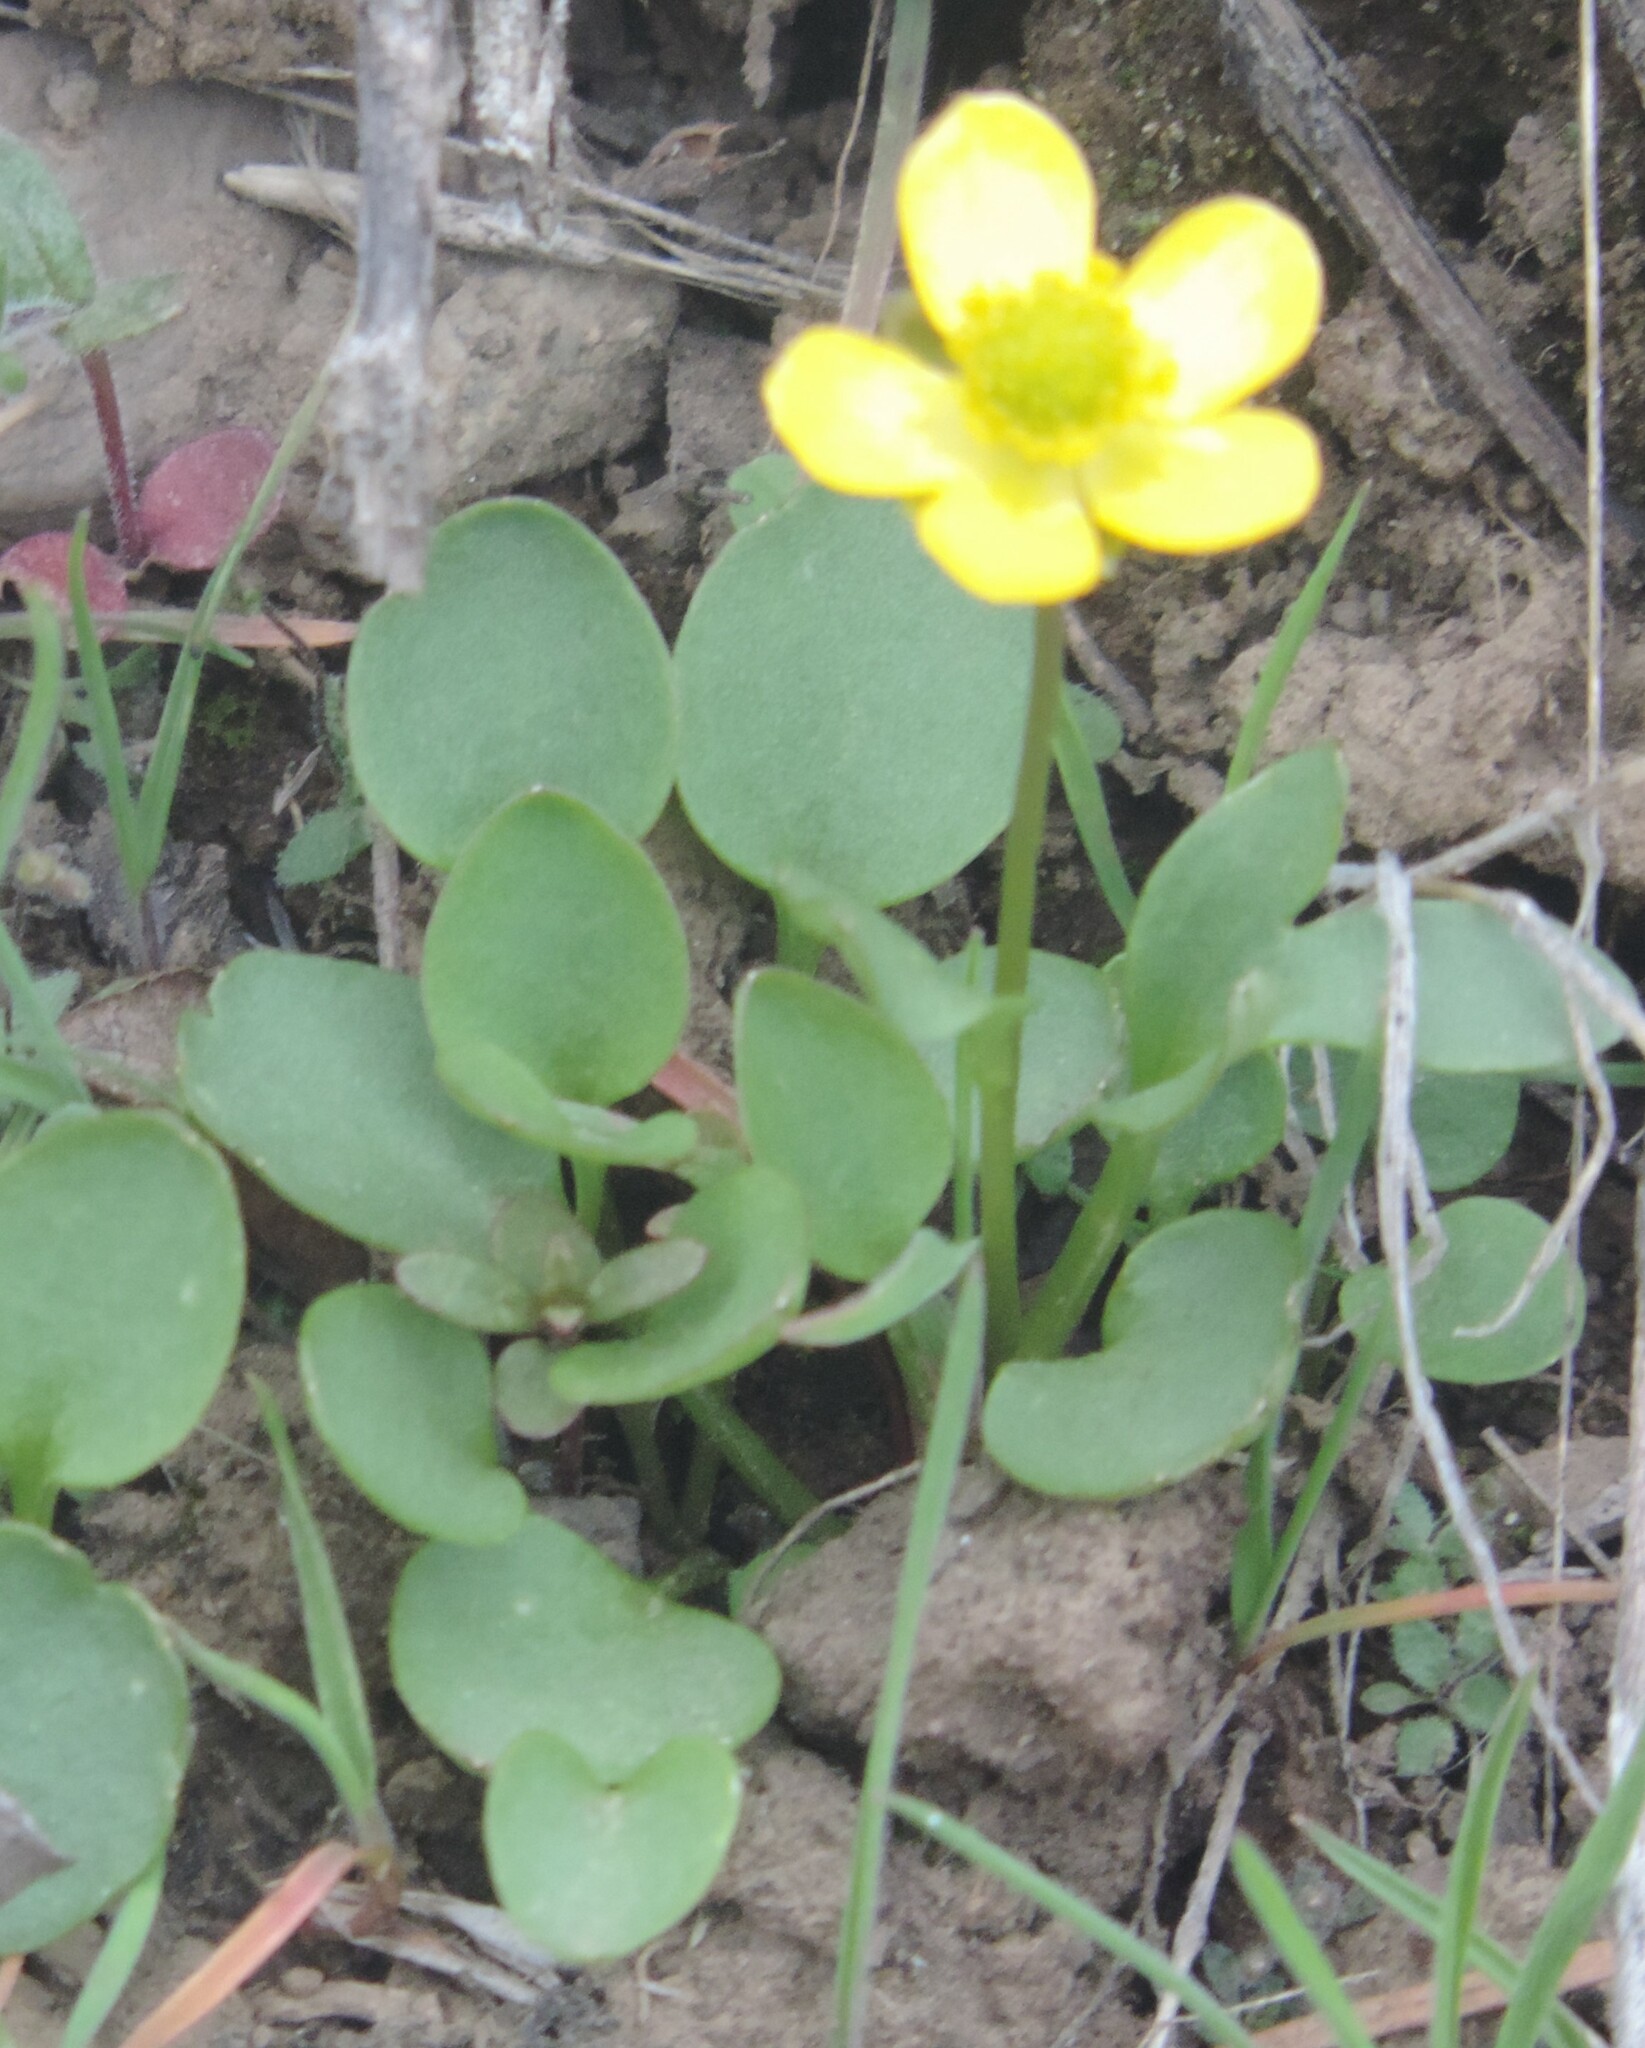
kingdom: Plantae
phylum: Tracheophyta
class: Magnoliopsida
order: Ranunculales
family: Ranunculaceae
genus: Ranunculus
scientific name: Ranunculus glaberrimus
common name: Sagebrush buttercup
